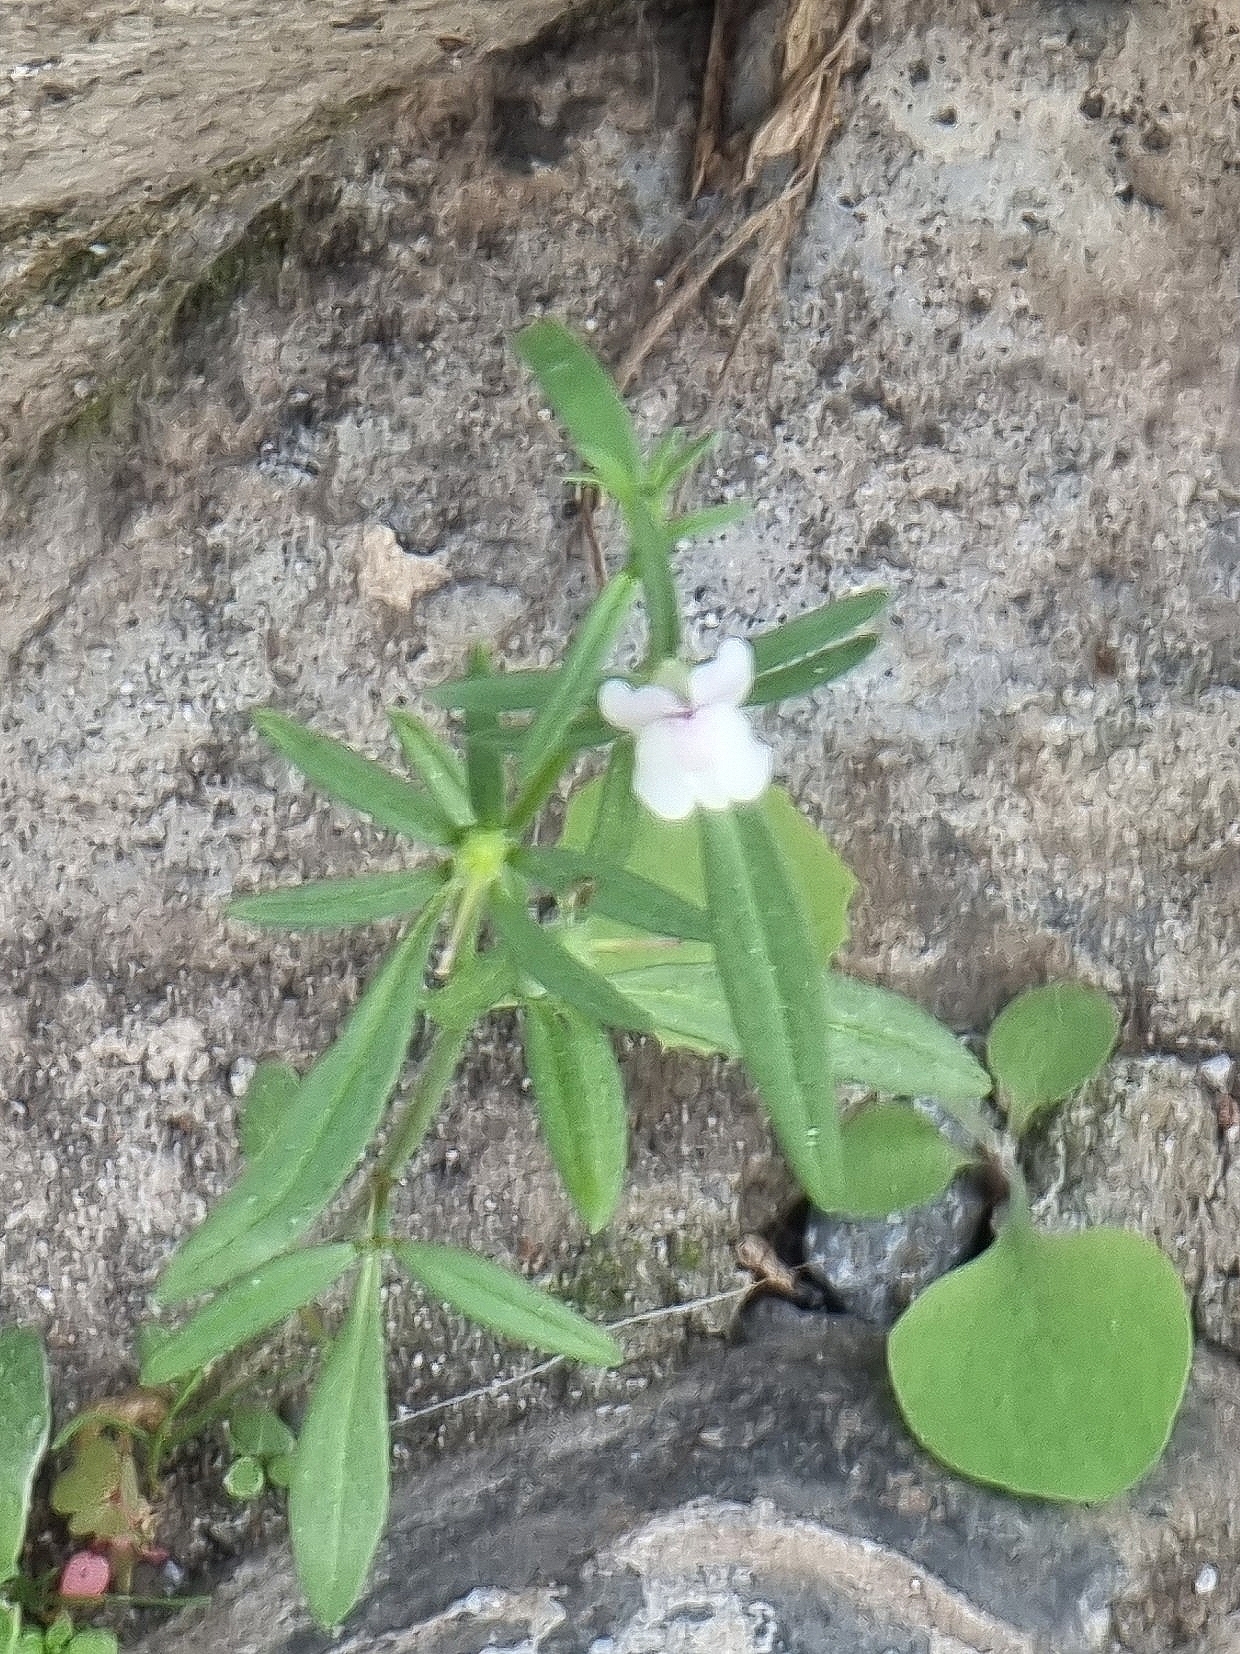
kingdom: Plantae
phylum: Tracheophyta
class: Magnoliopsida
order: Lamiales
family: Plantaginaceae
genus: Misopates
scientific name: Misopates orontium
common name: Weasel's-snout
